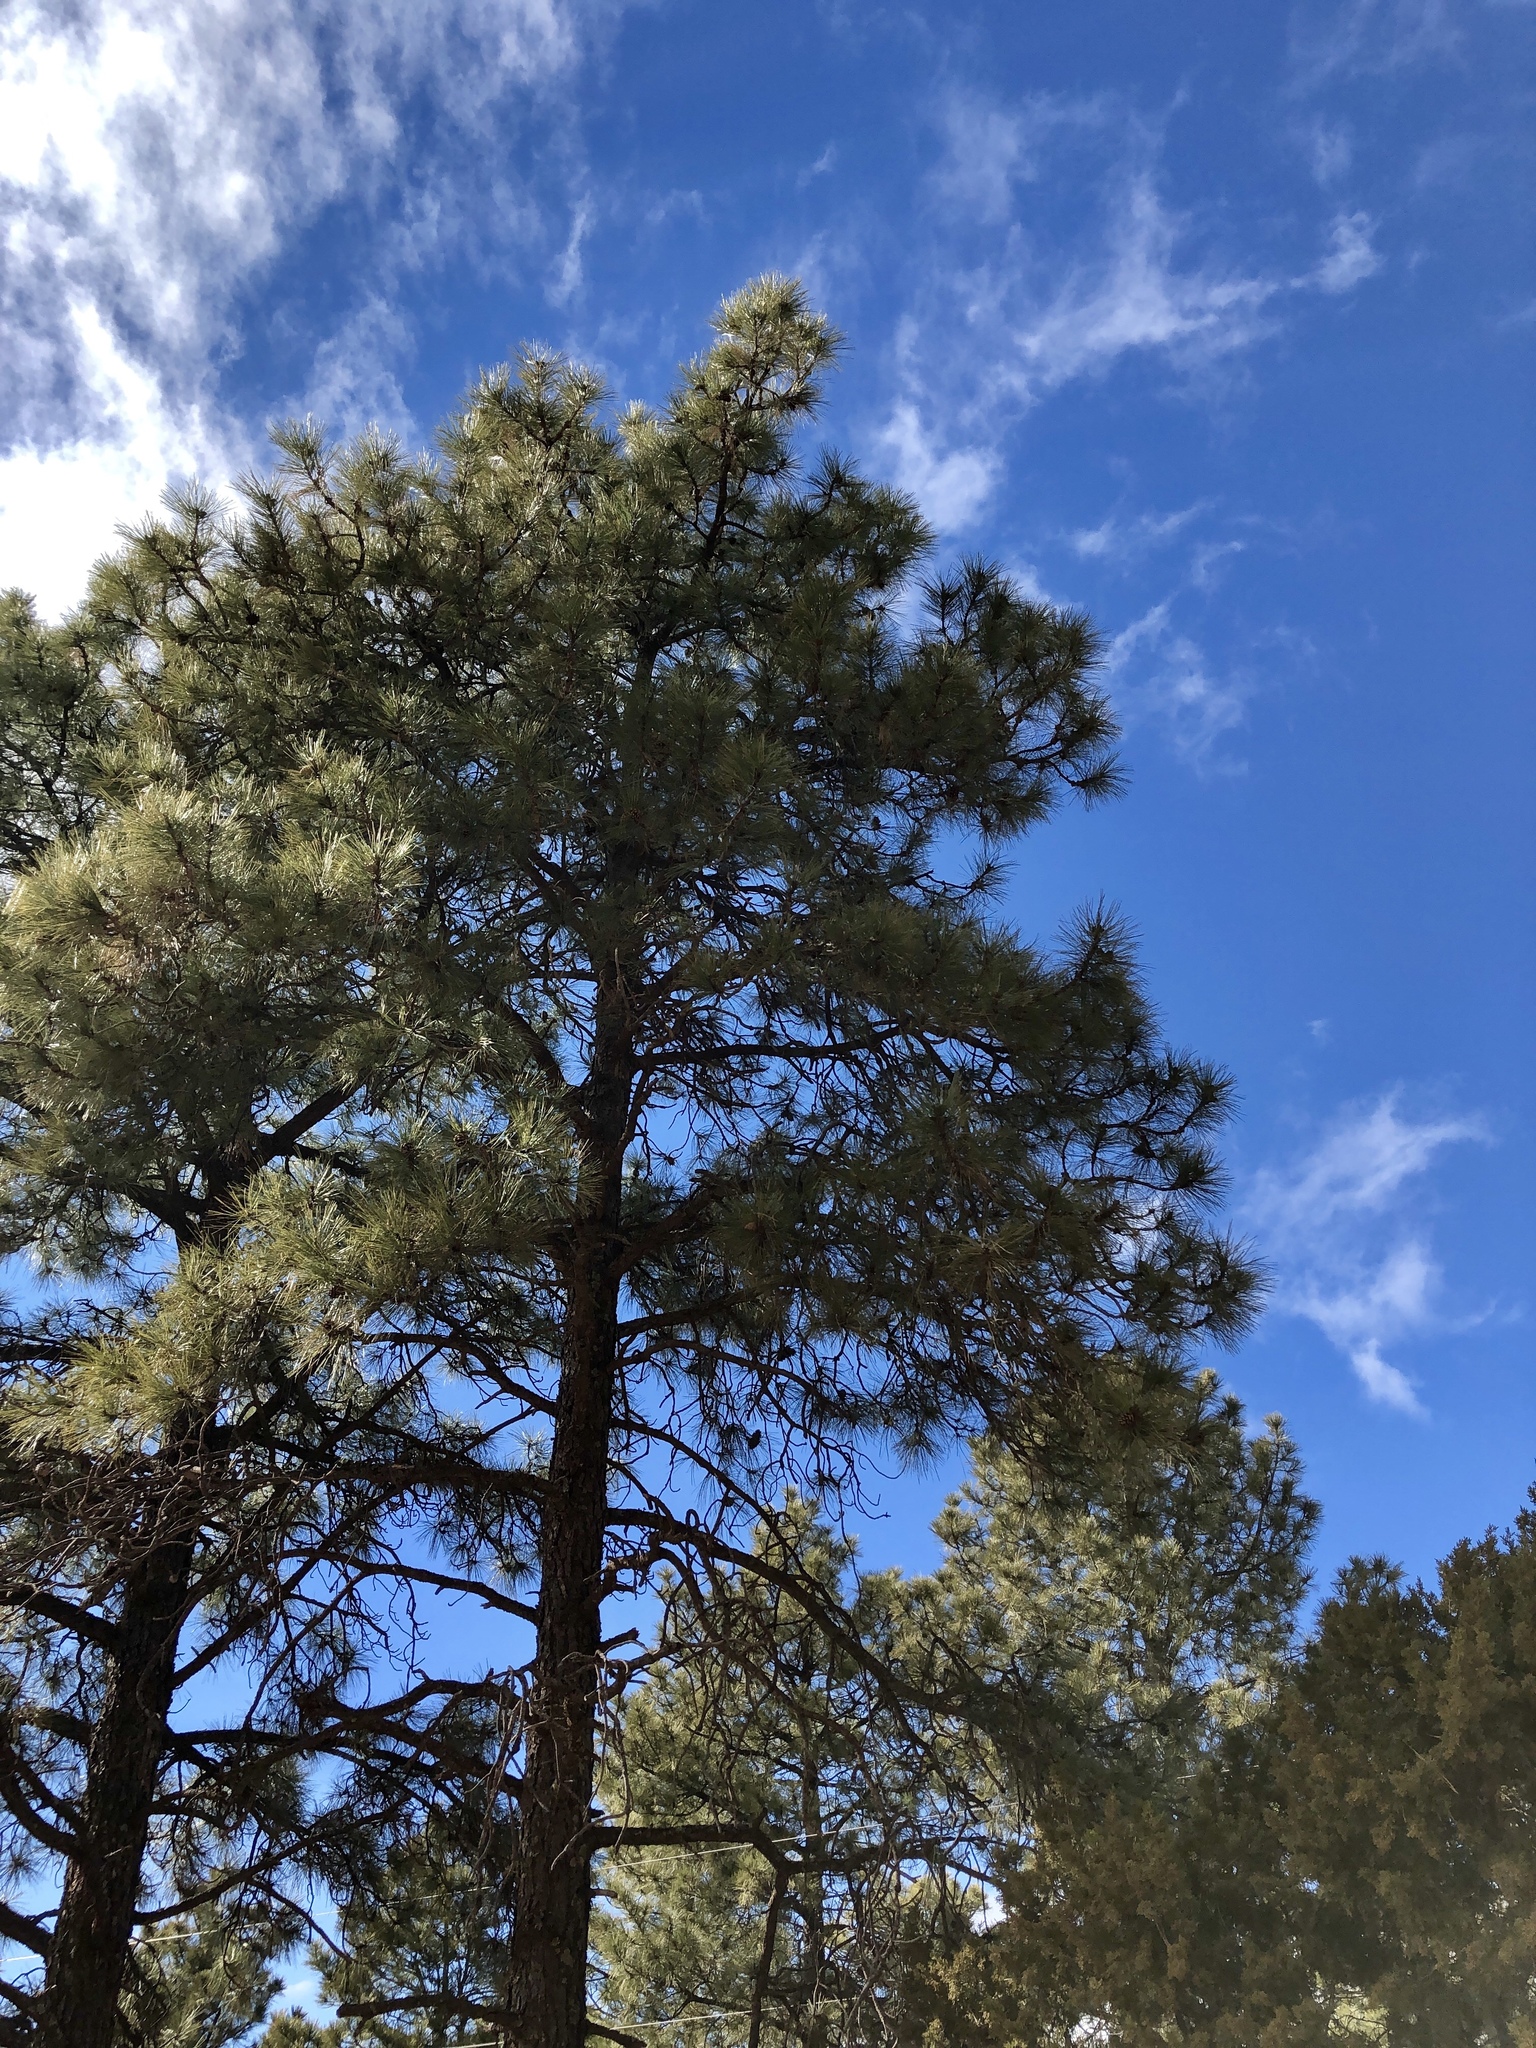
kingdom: Plantae
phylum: Tracheophyta
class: Pinopsida
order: Pinales
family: Pinaceae
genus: Pinus
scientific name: Pinus ponderosa
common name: Western yellow-pine
